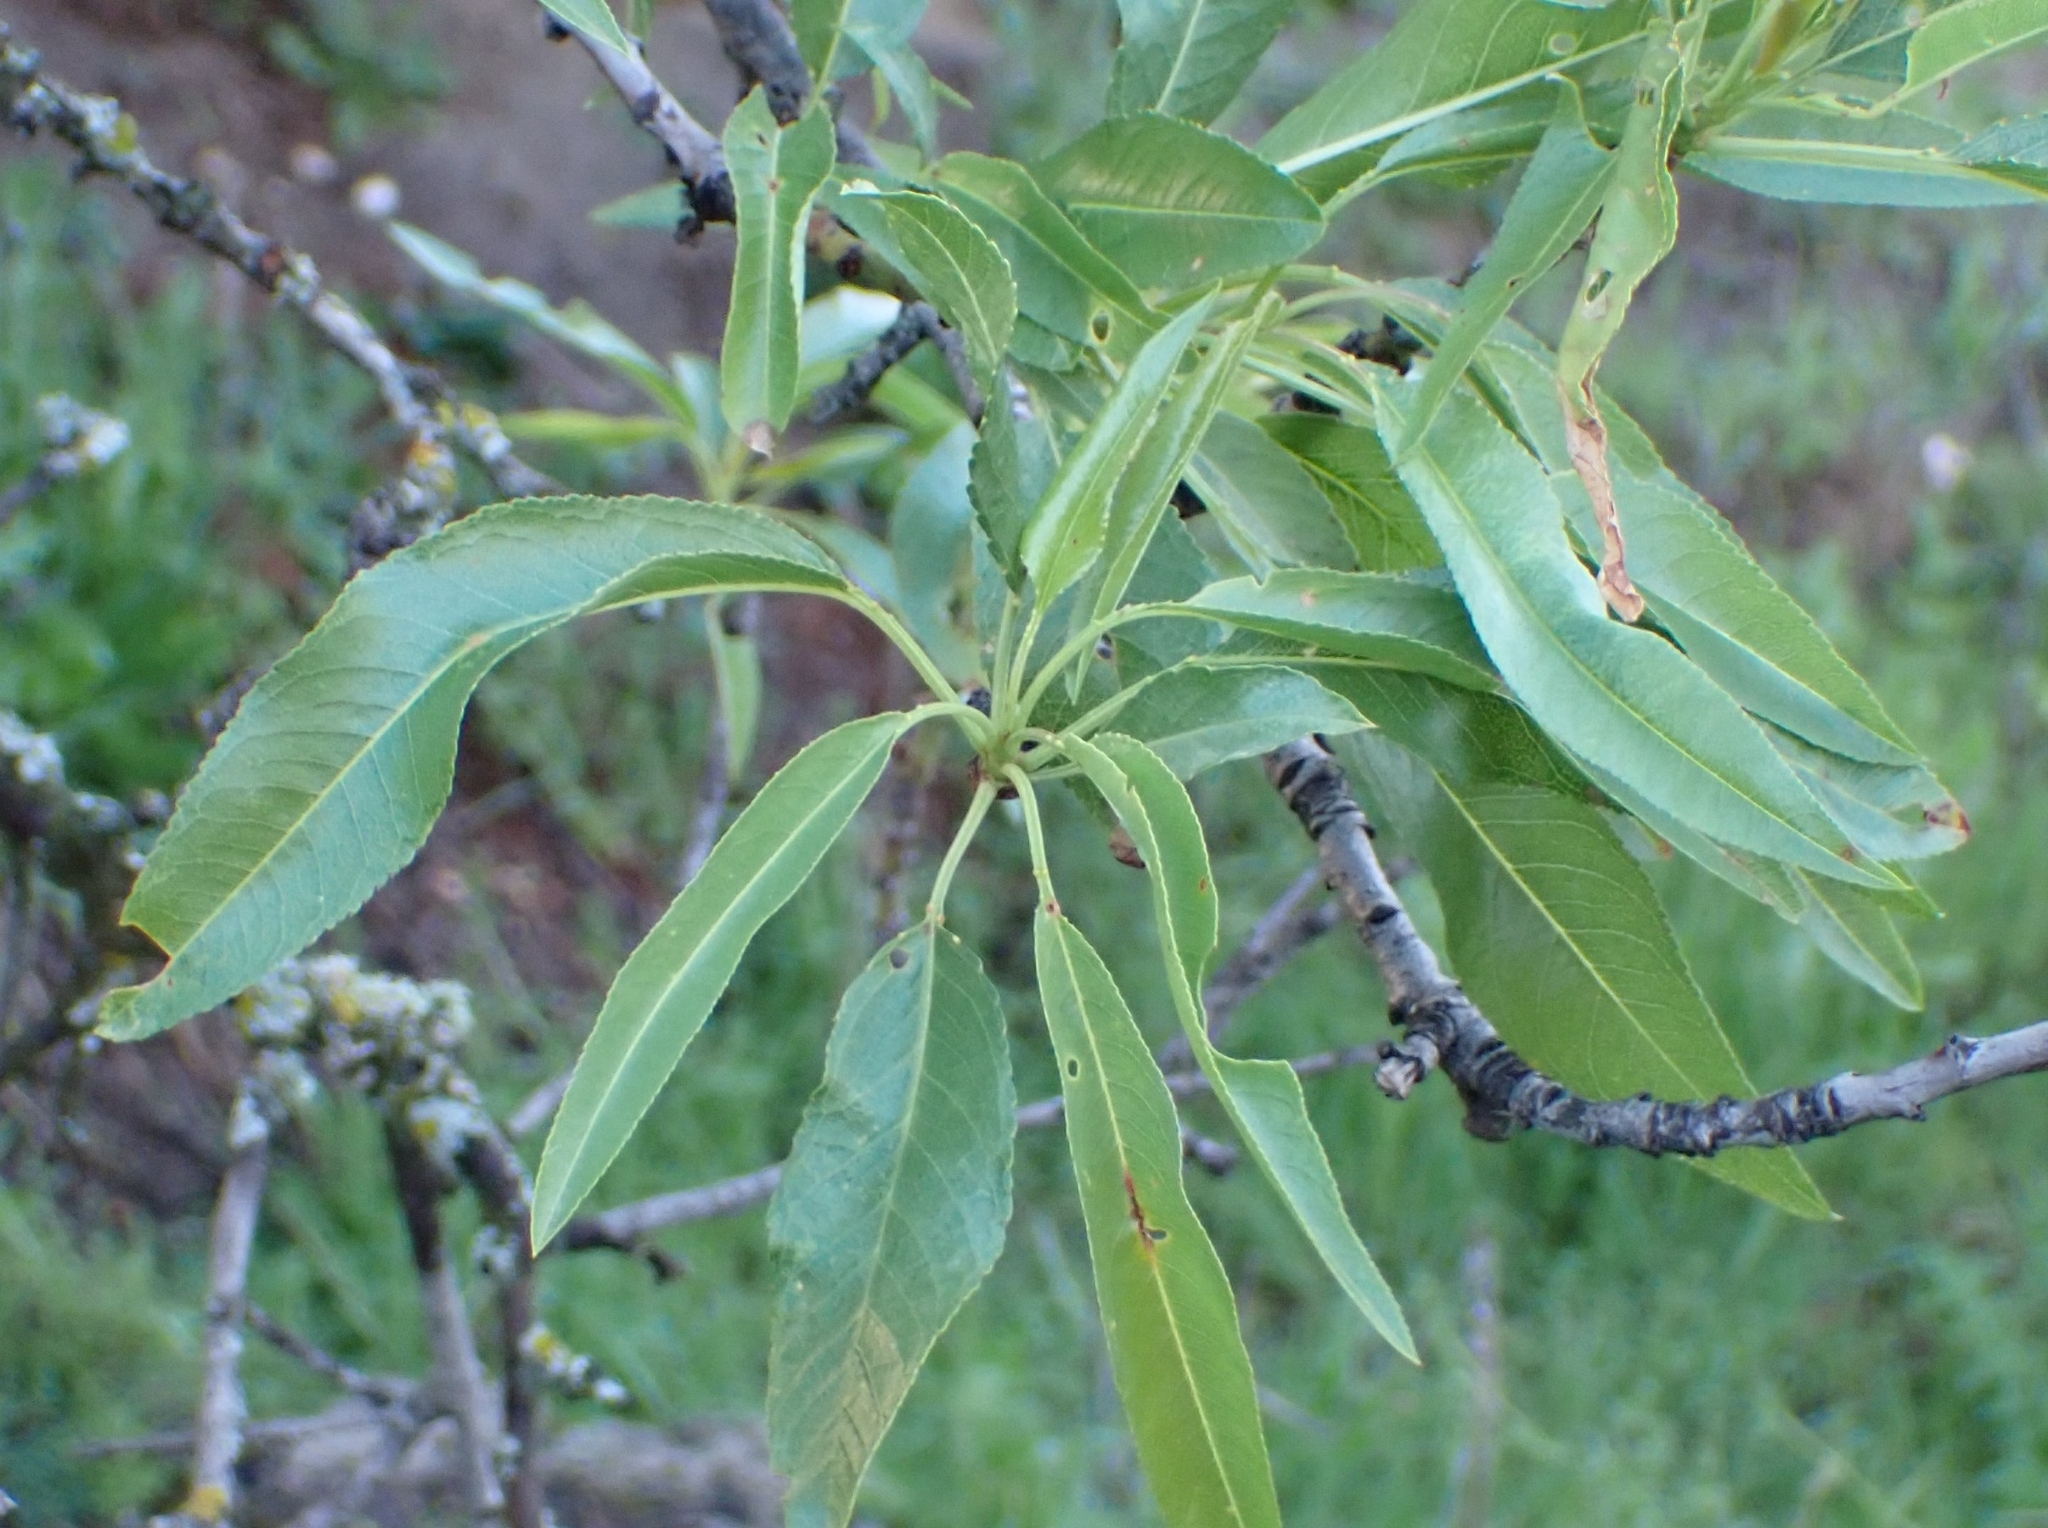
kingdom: Plantae
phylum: Tracheophyta
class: Magnoliopsida
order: Rosales
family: Rosaceae
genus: Prunus
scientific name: Prunus amygdalus
